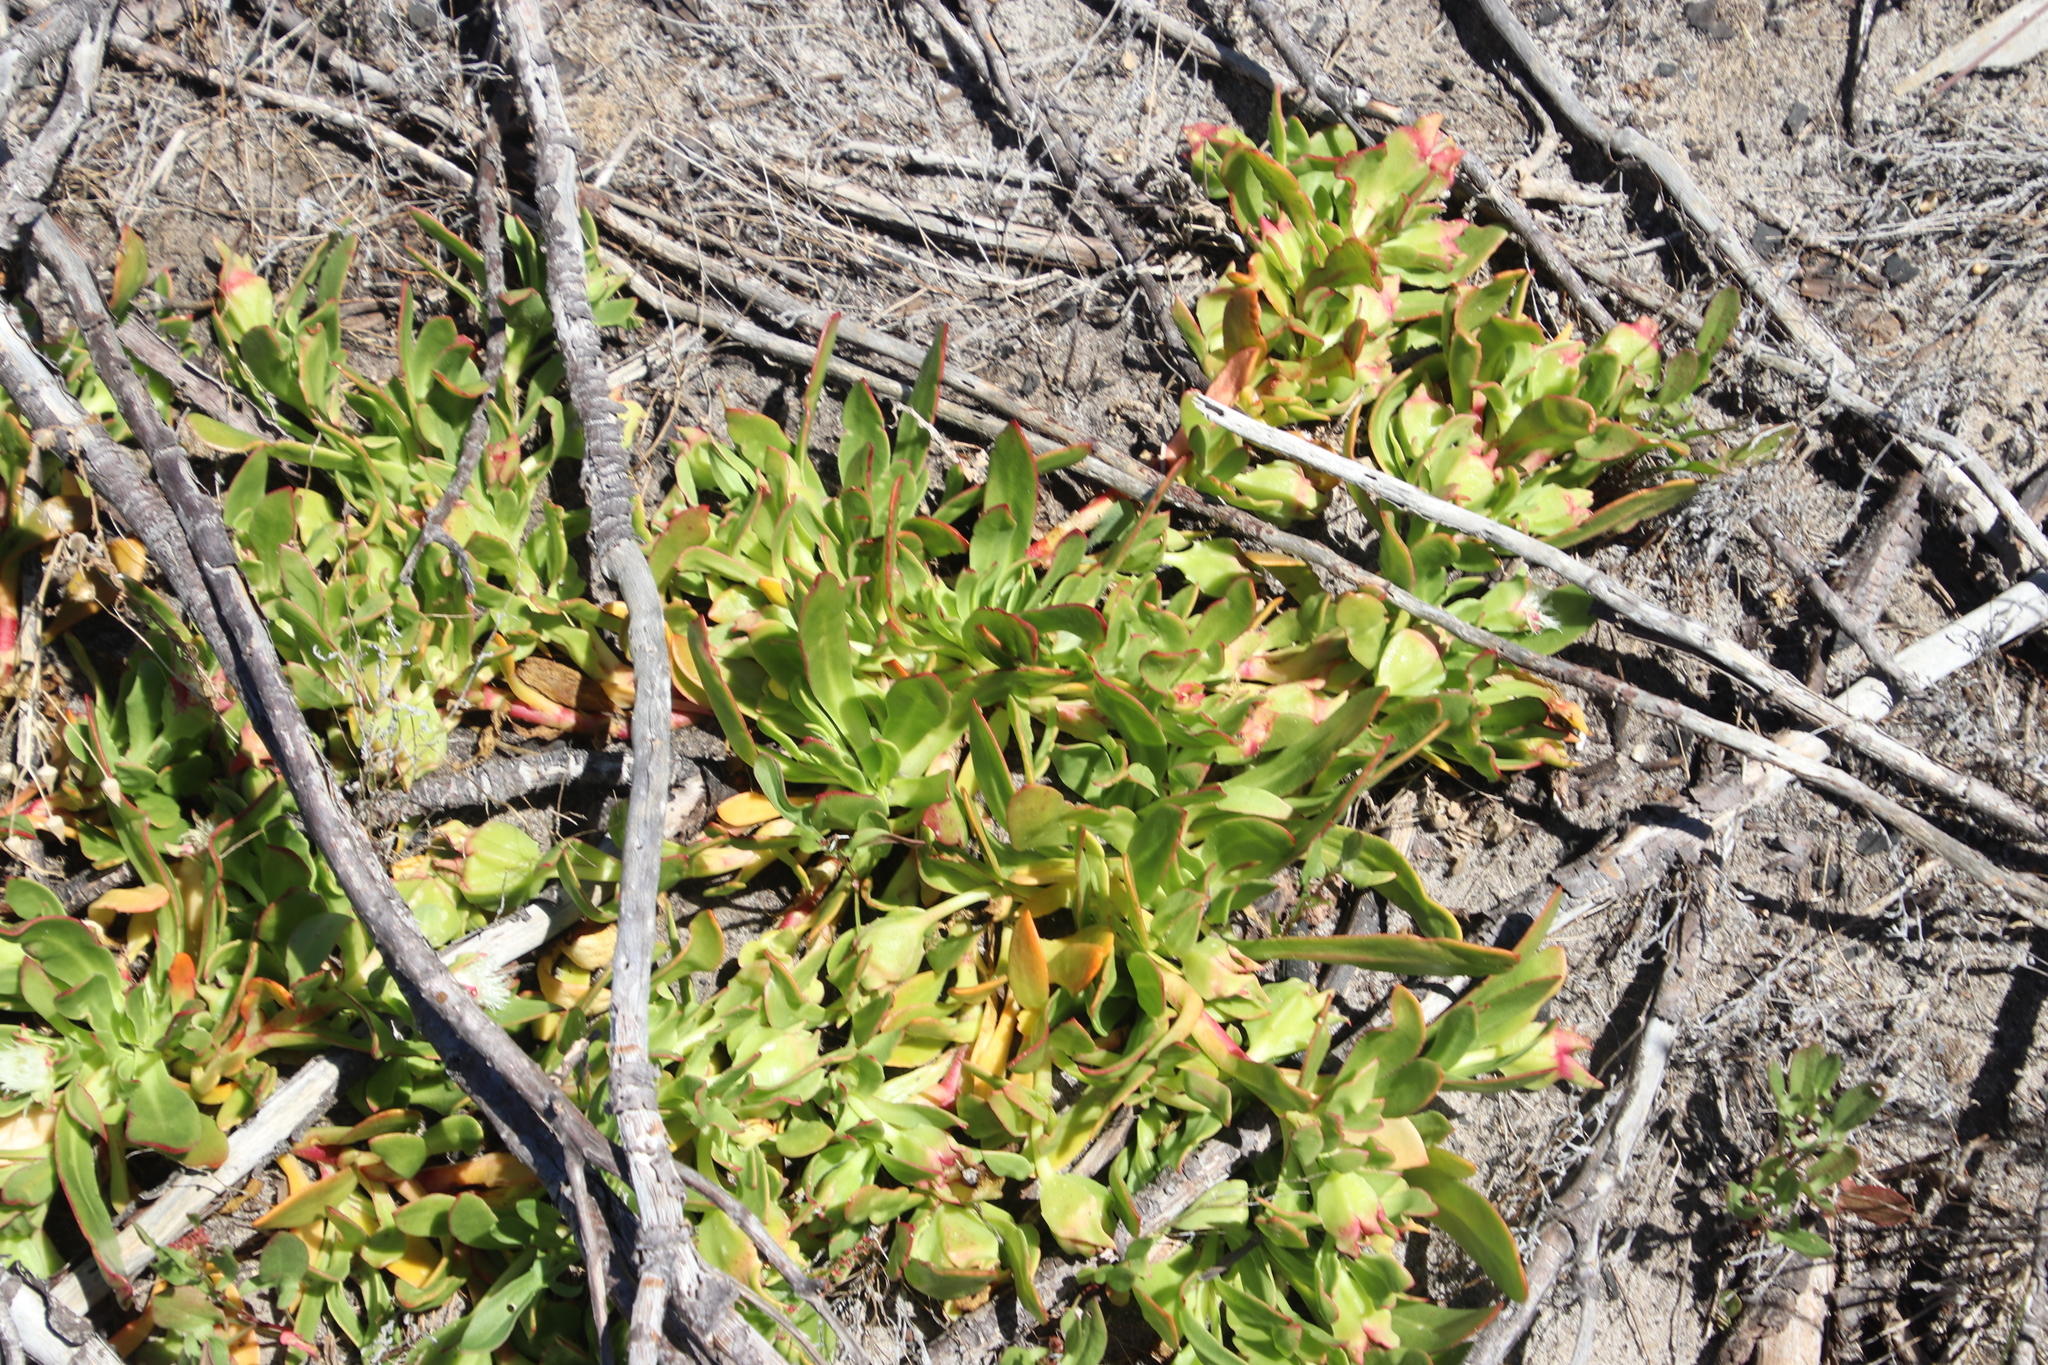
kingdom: Plantae
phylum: Tracheophyta
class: Magnoliopsida
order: Caryophyllales
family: Aizoaceae
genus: Skiatophytum
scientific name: Skiatophytum tripolium
